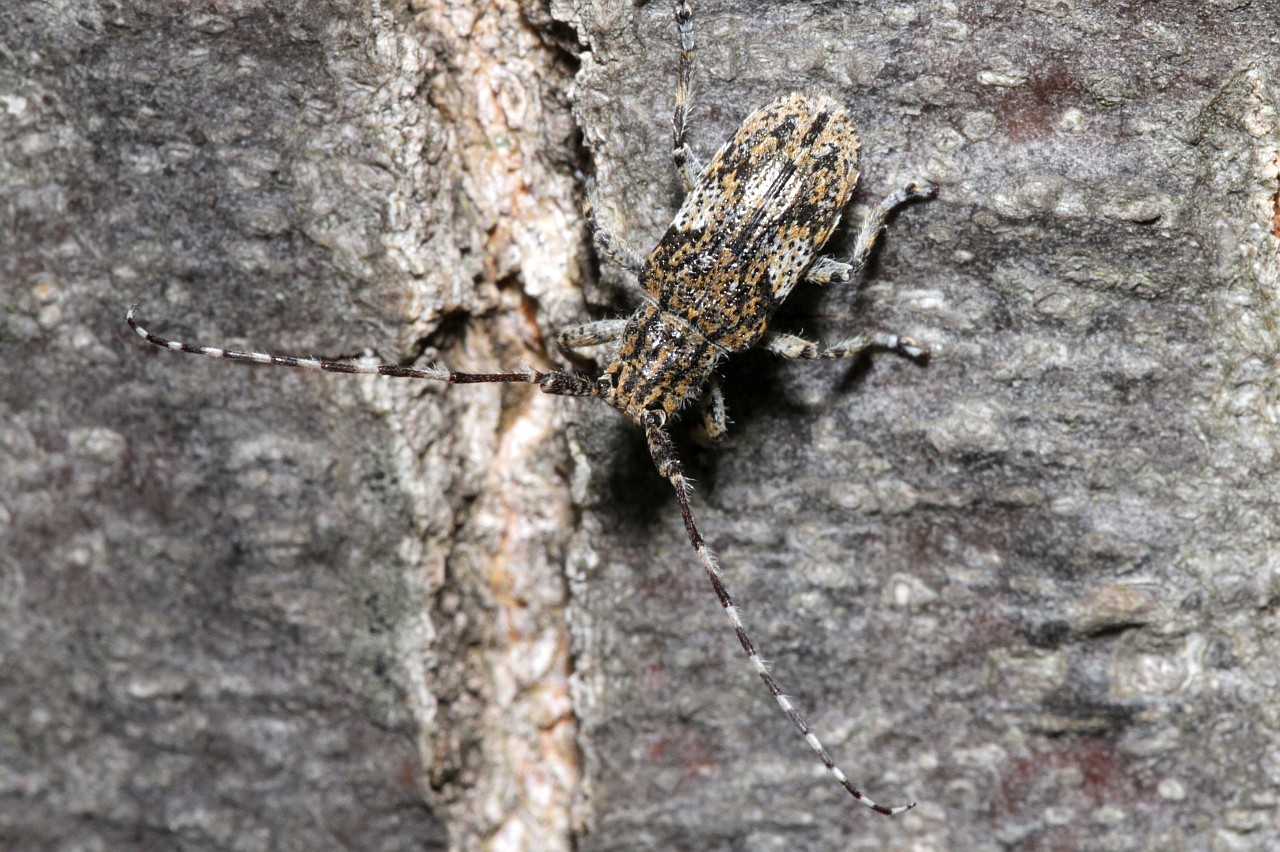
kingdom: Animalia
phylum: Arthropoda
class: Insecta
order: Coleoptera
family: Cerambycidae
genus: Mesosa
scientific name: Mesosa nebulosa
